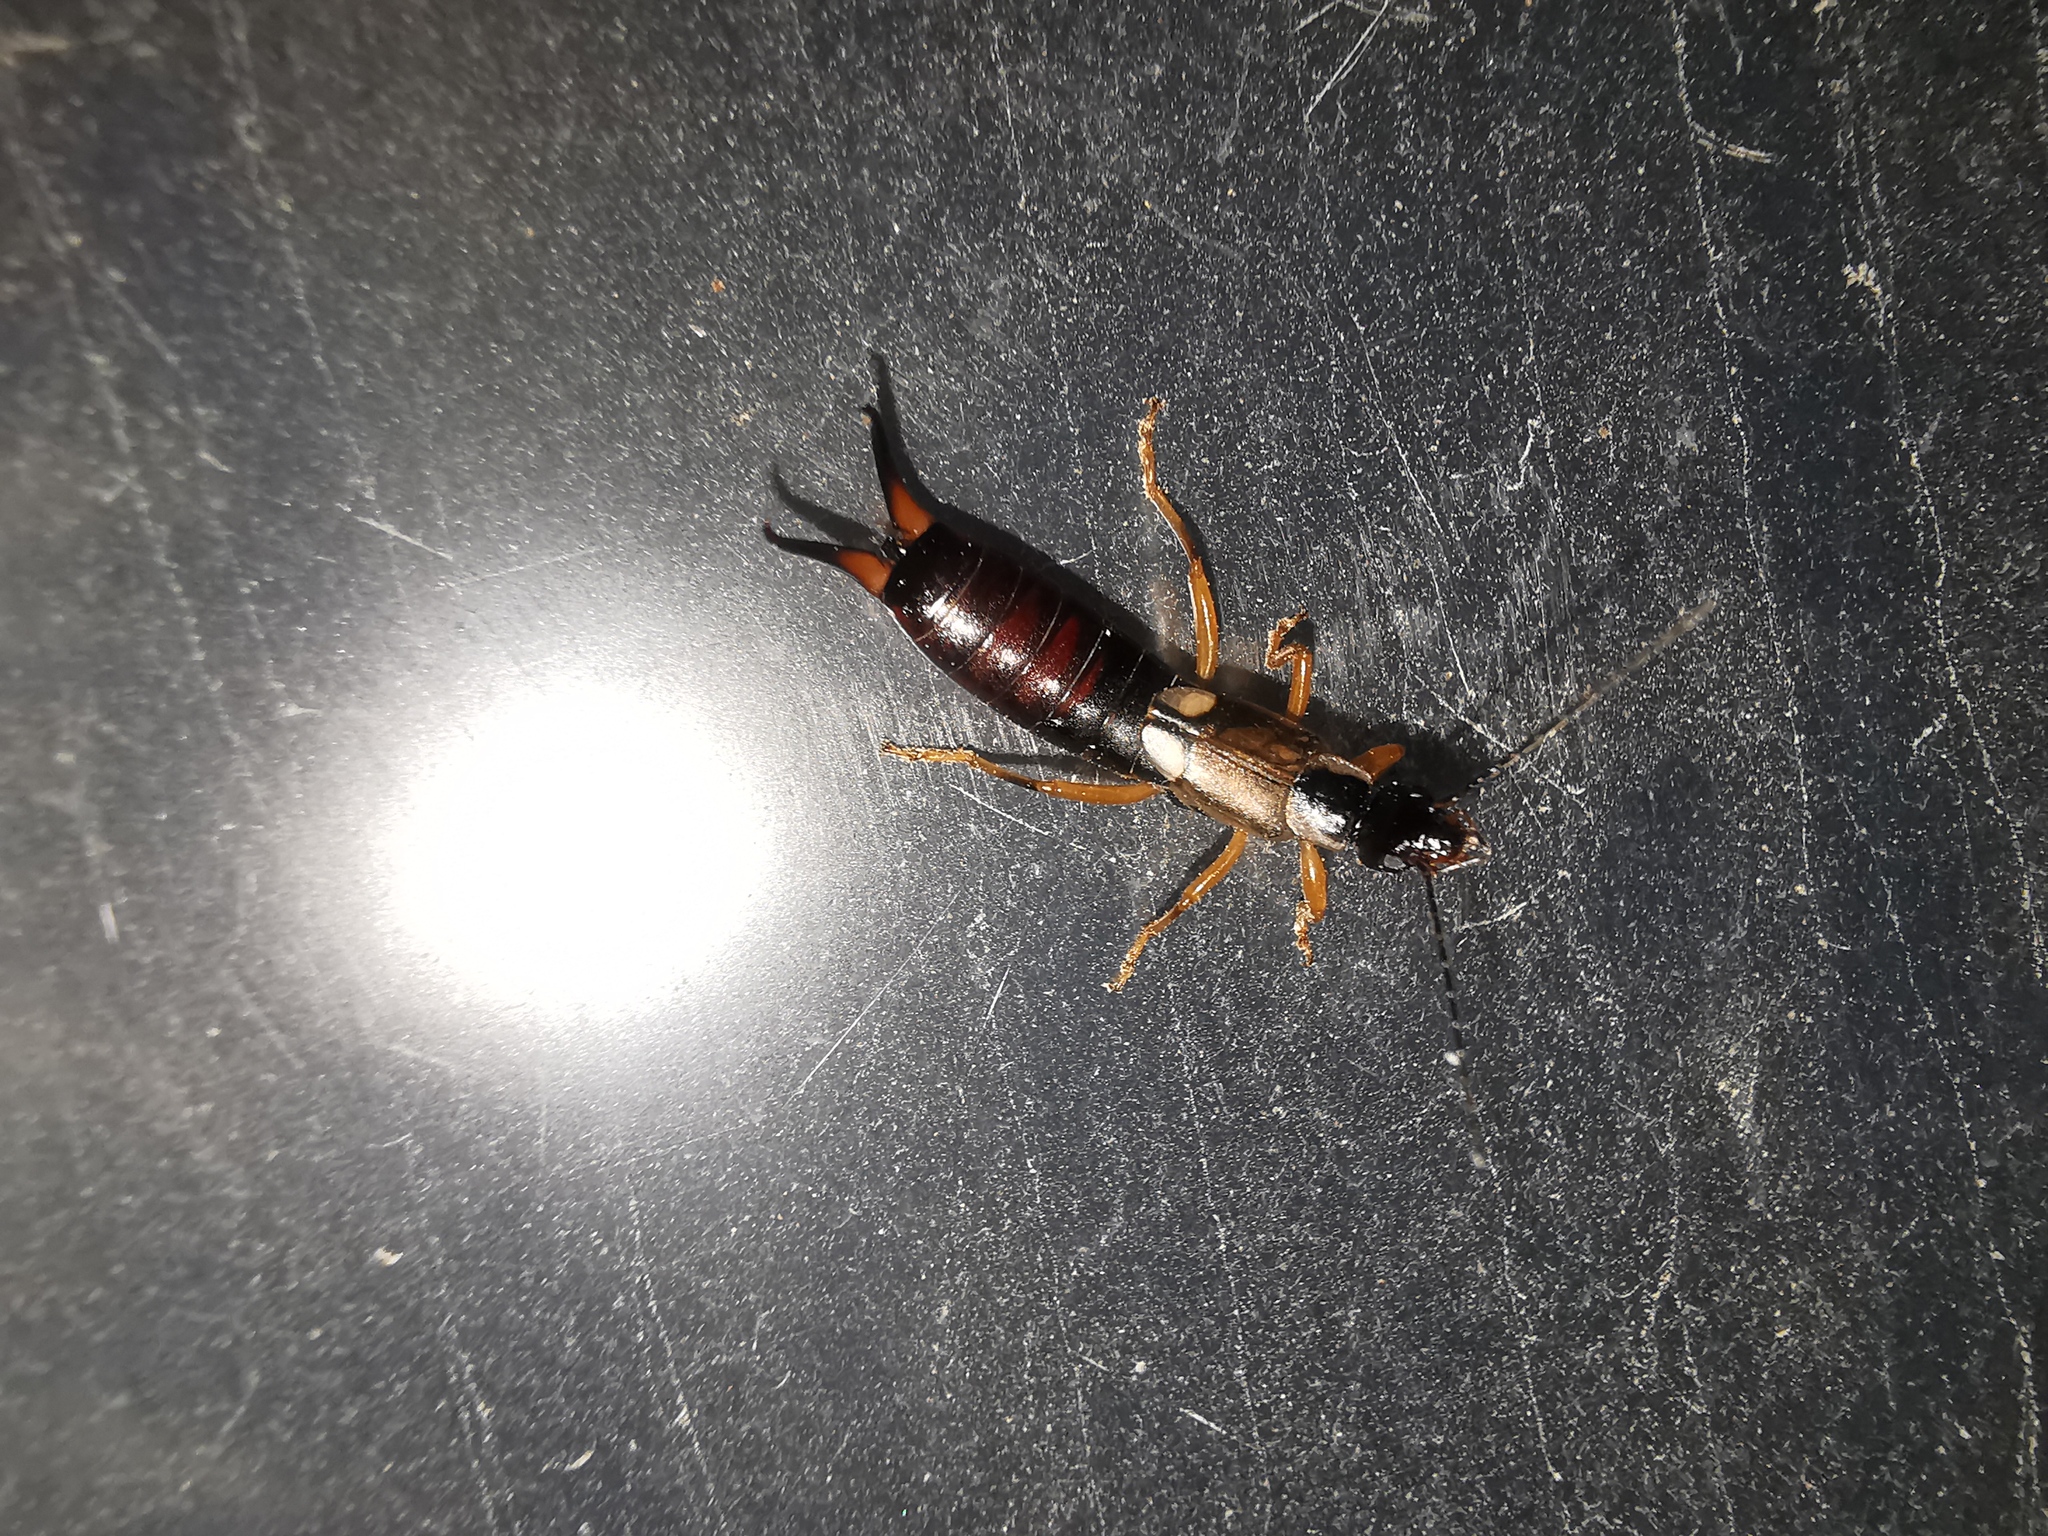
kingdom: Animalia
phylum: Arthropoda
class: Insecta
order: Dermaptera
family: Forficulidae
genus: Forficula
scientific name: Forficula
